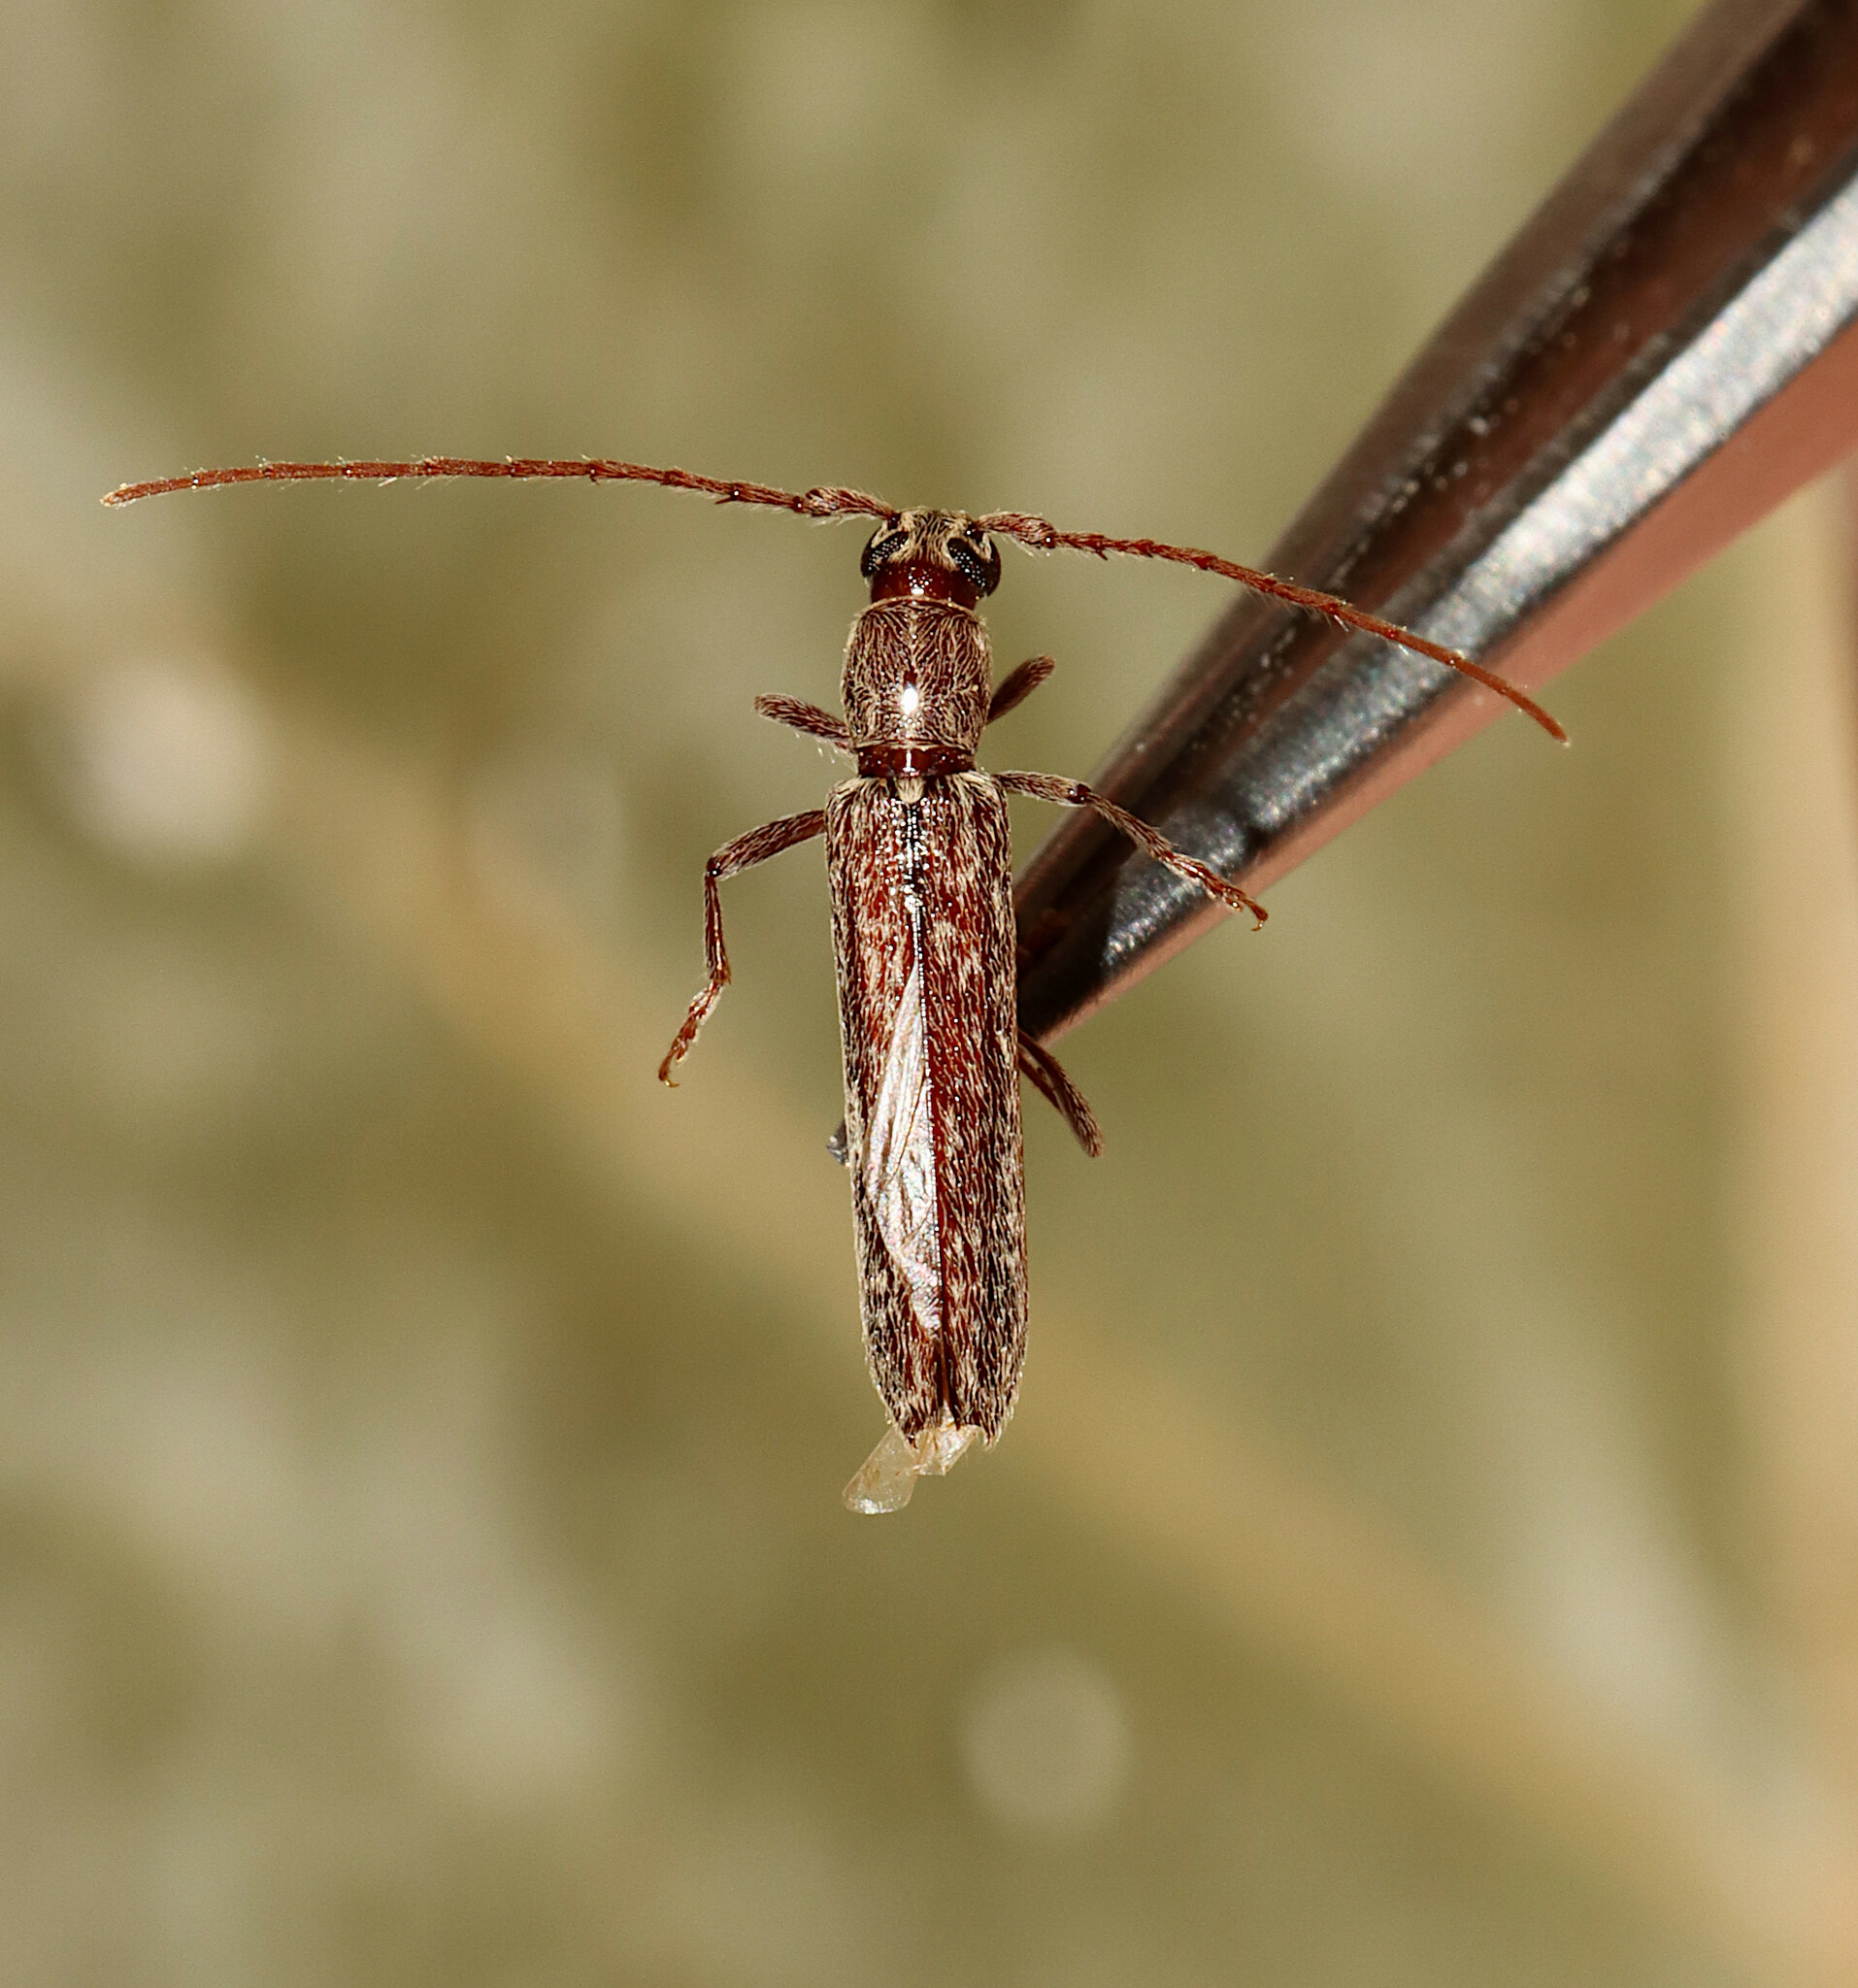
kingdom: Animalia
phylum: Arthropoda
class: Insecta
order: Coleoptera
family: Cerambycidae
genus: Anelaphus
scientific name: Anelaphus villosus
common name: Twig pruner
